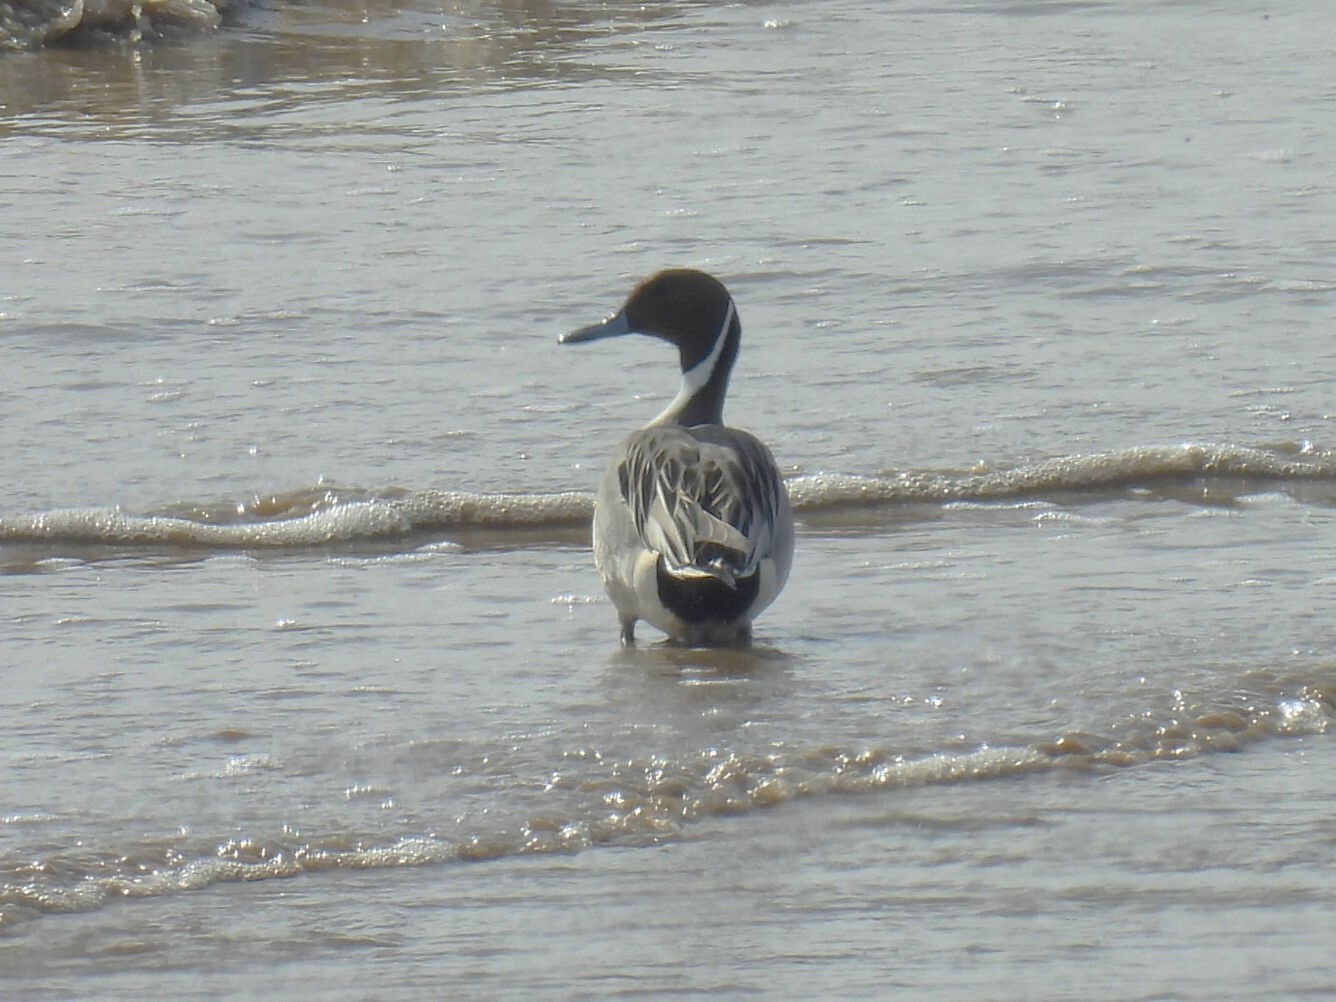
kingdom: Animalia
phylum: Chordata
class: Aves
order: Anseriformes
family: Anatidae
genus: Anas
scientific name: Anas acuta
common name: Northern pintail
